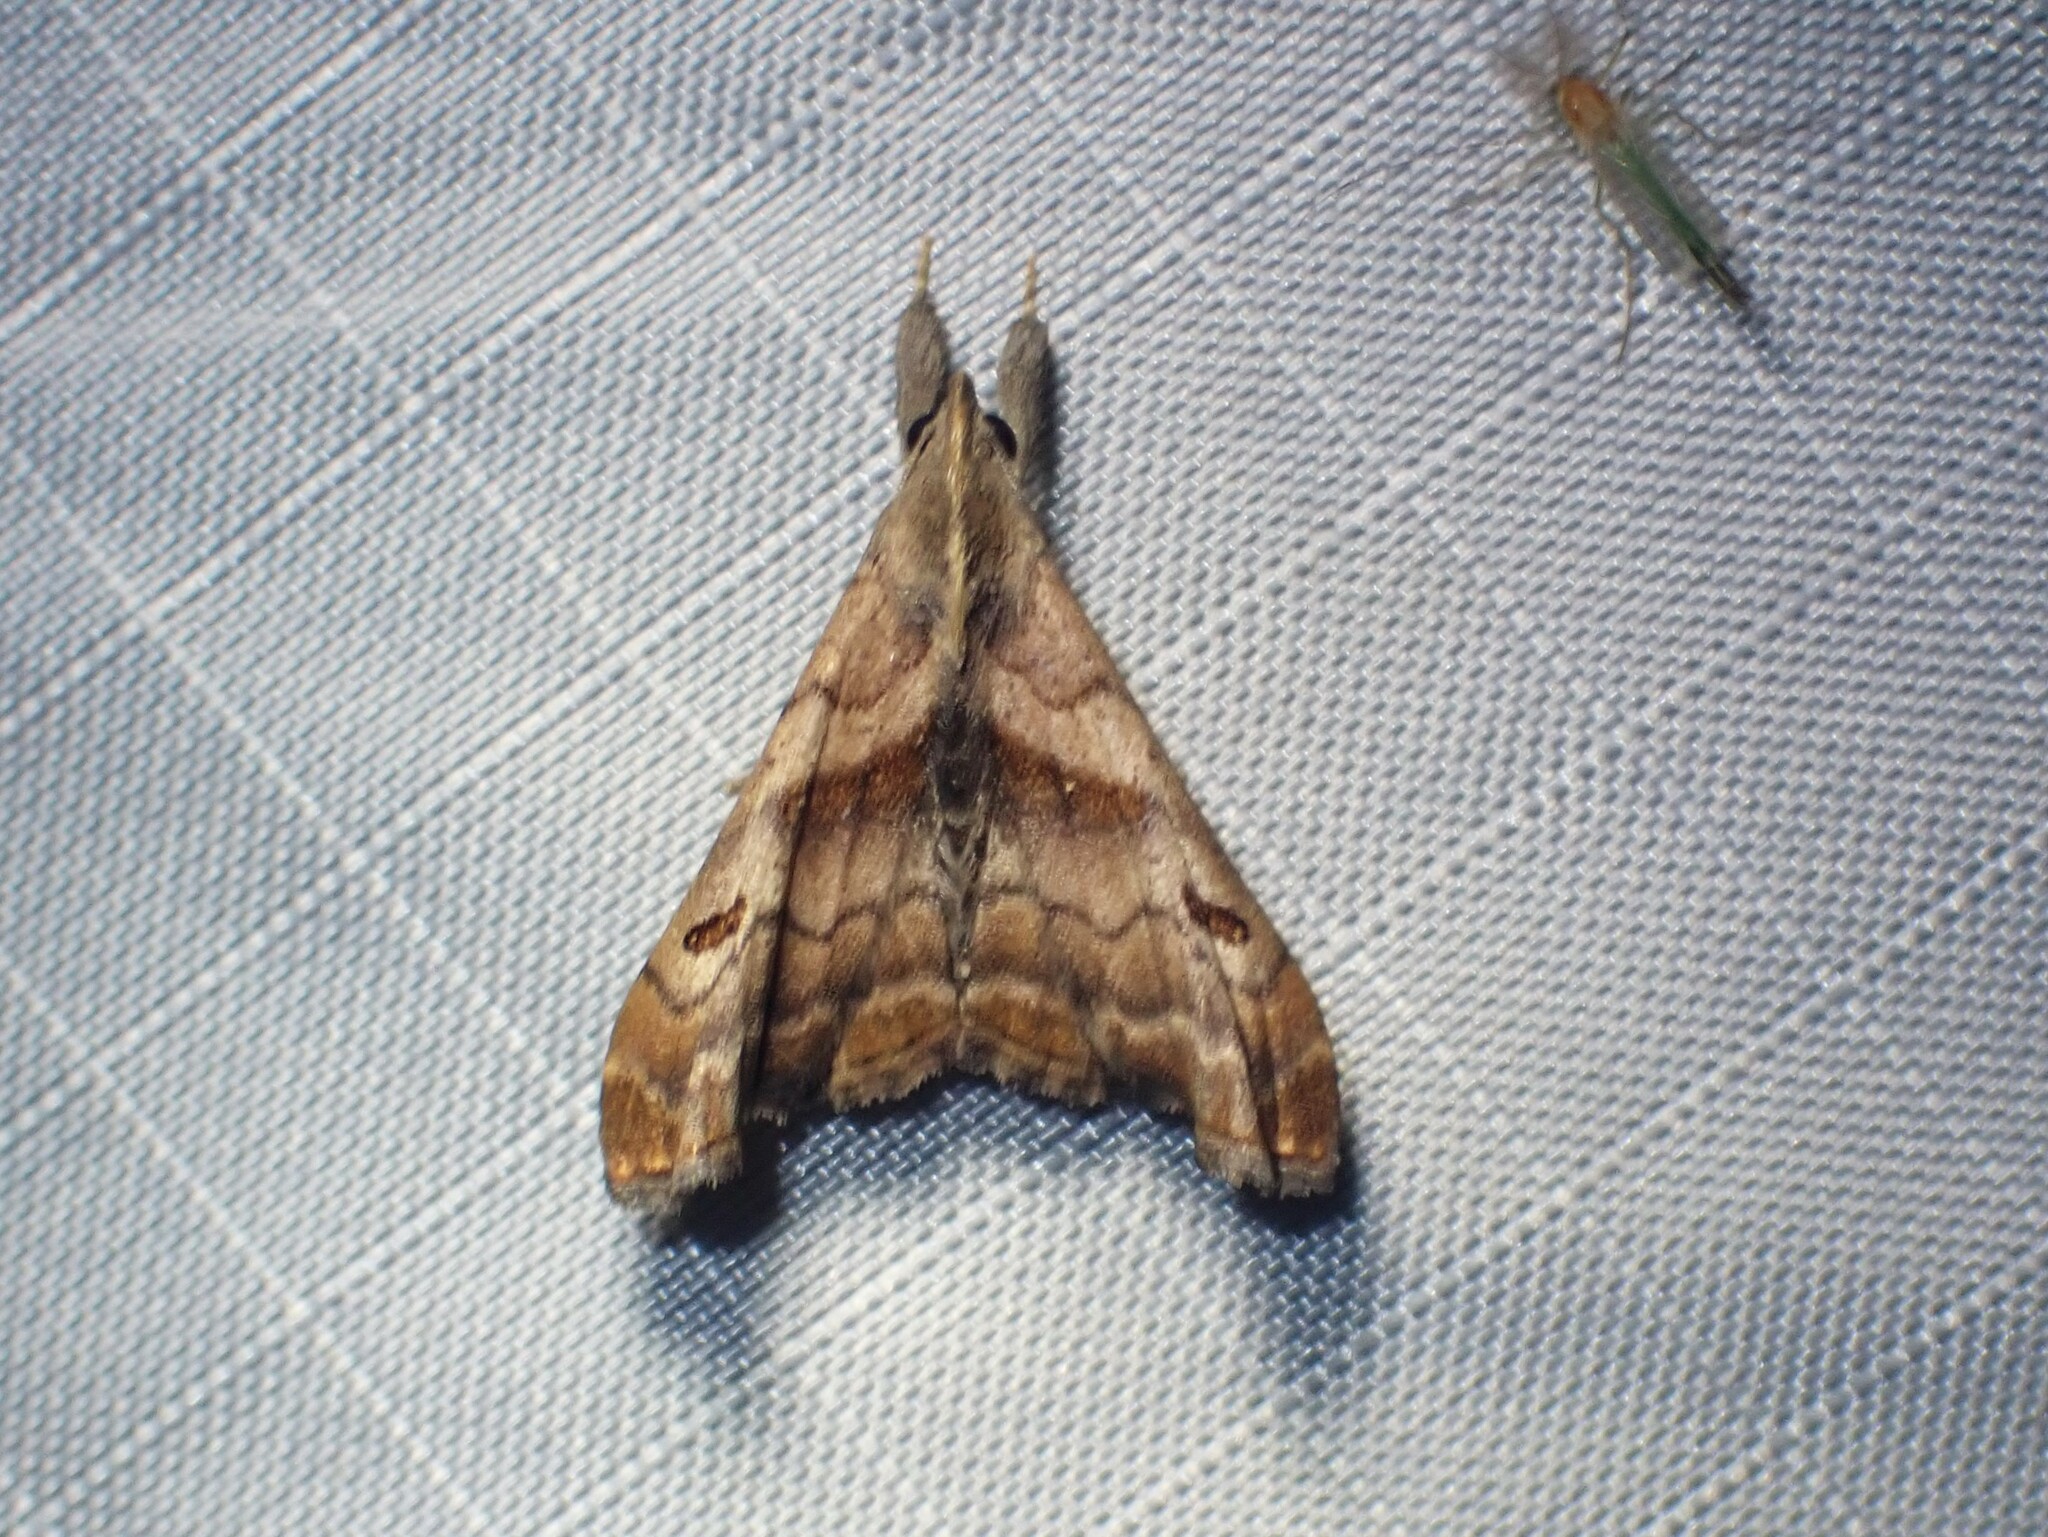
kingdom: Animalia
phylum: Arthropoda
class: Insecta
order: Lepidoptera
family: Erebidae
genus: Palthis
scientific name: Palthis angulalis
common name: Dark-spotted palthis moth
